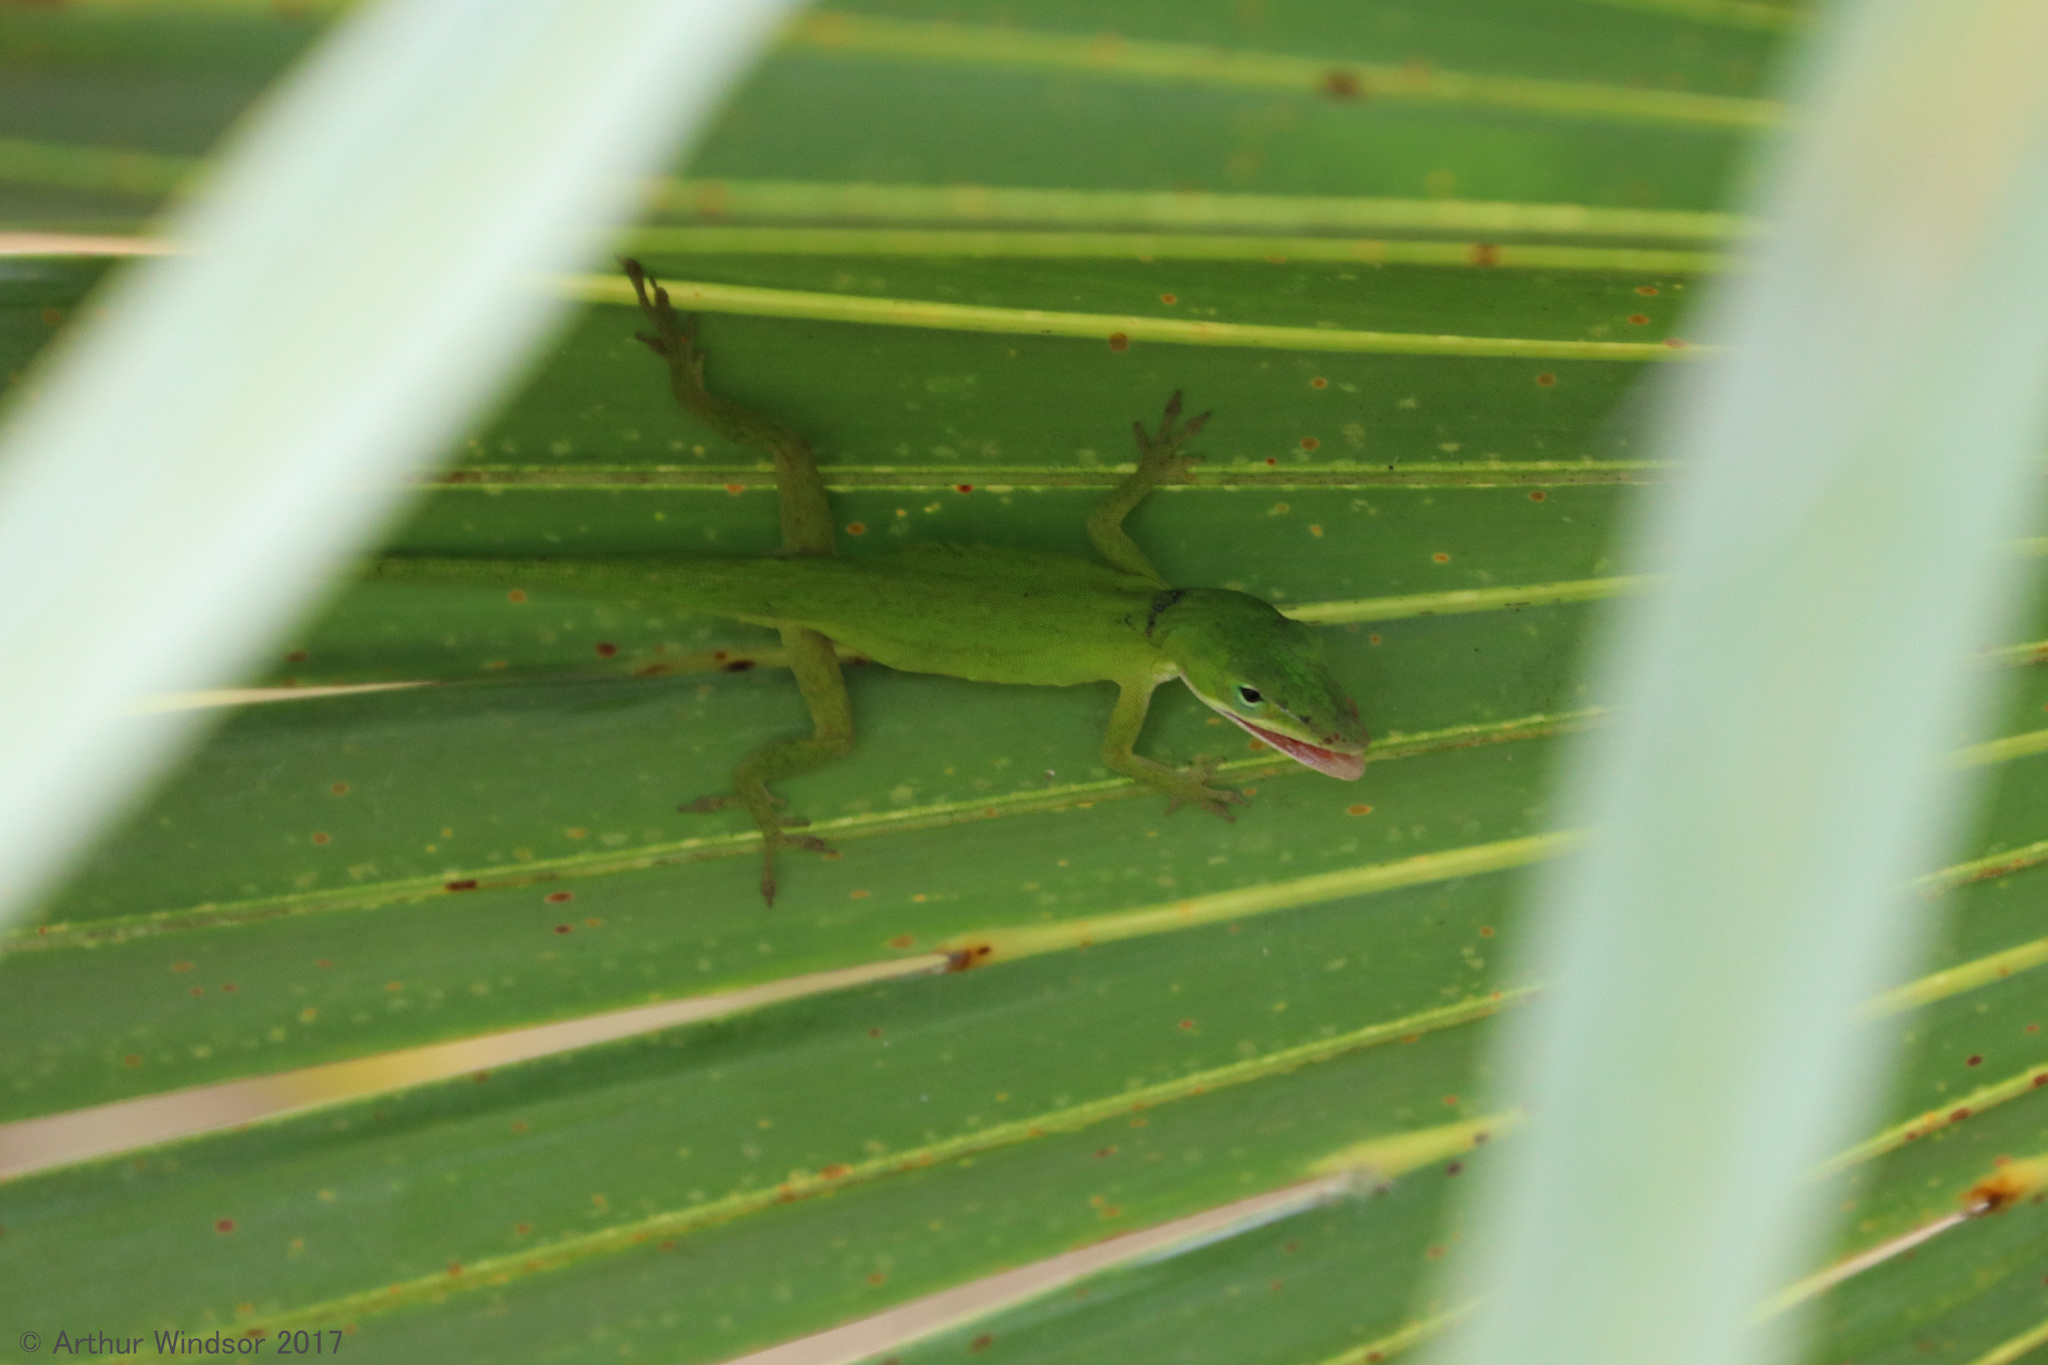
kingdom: Animalia
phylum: Chordata
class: Squamata
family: Dactyloidae
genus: Anolis
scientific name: Anolis carolinensis
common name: Green anole
